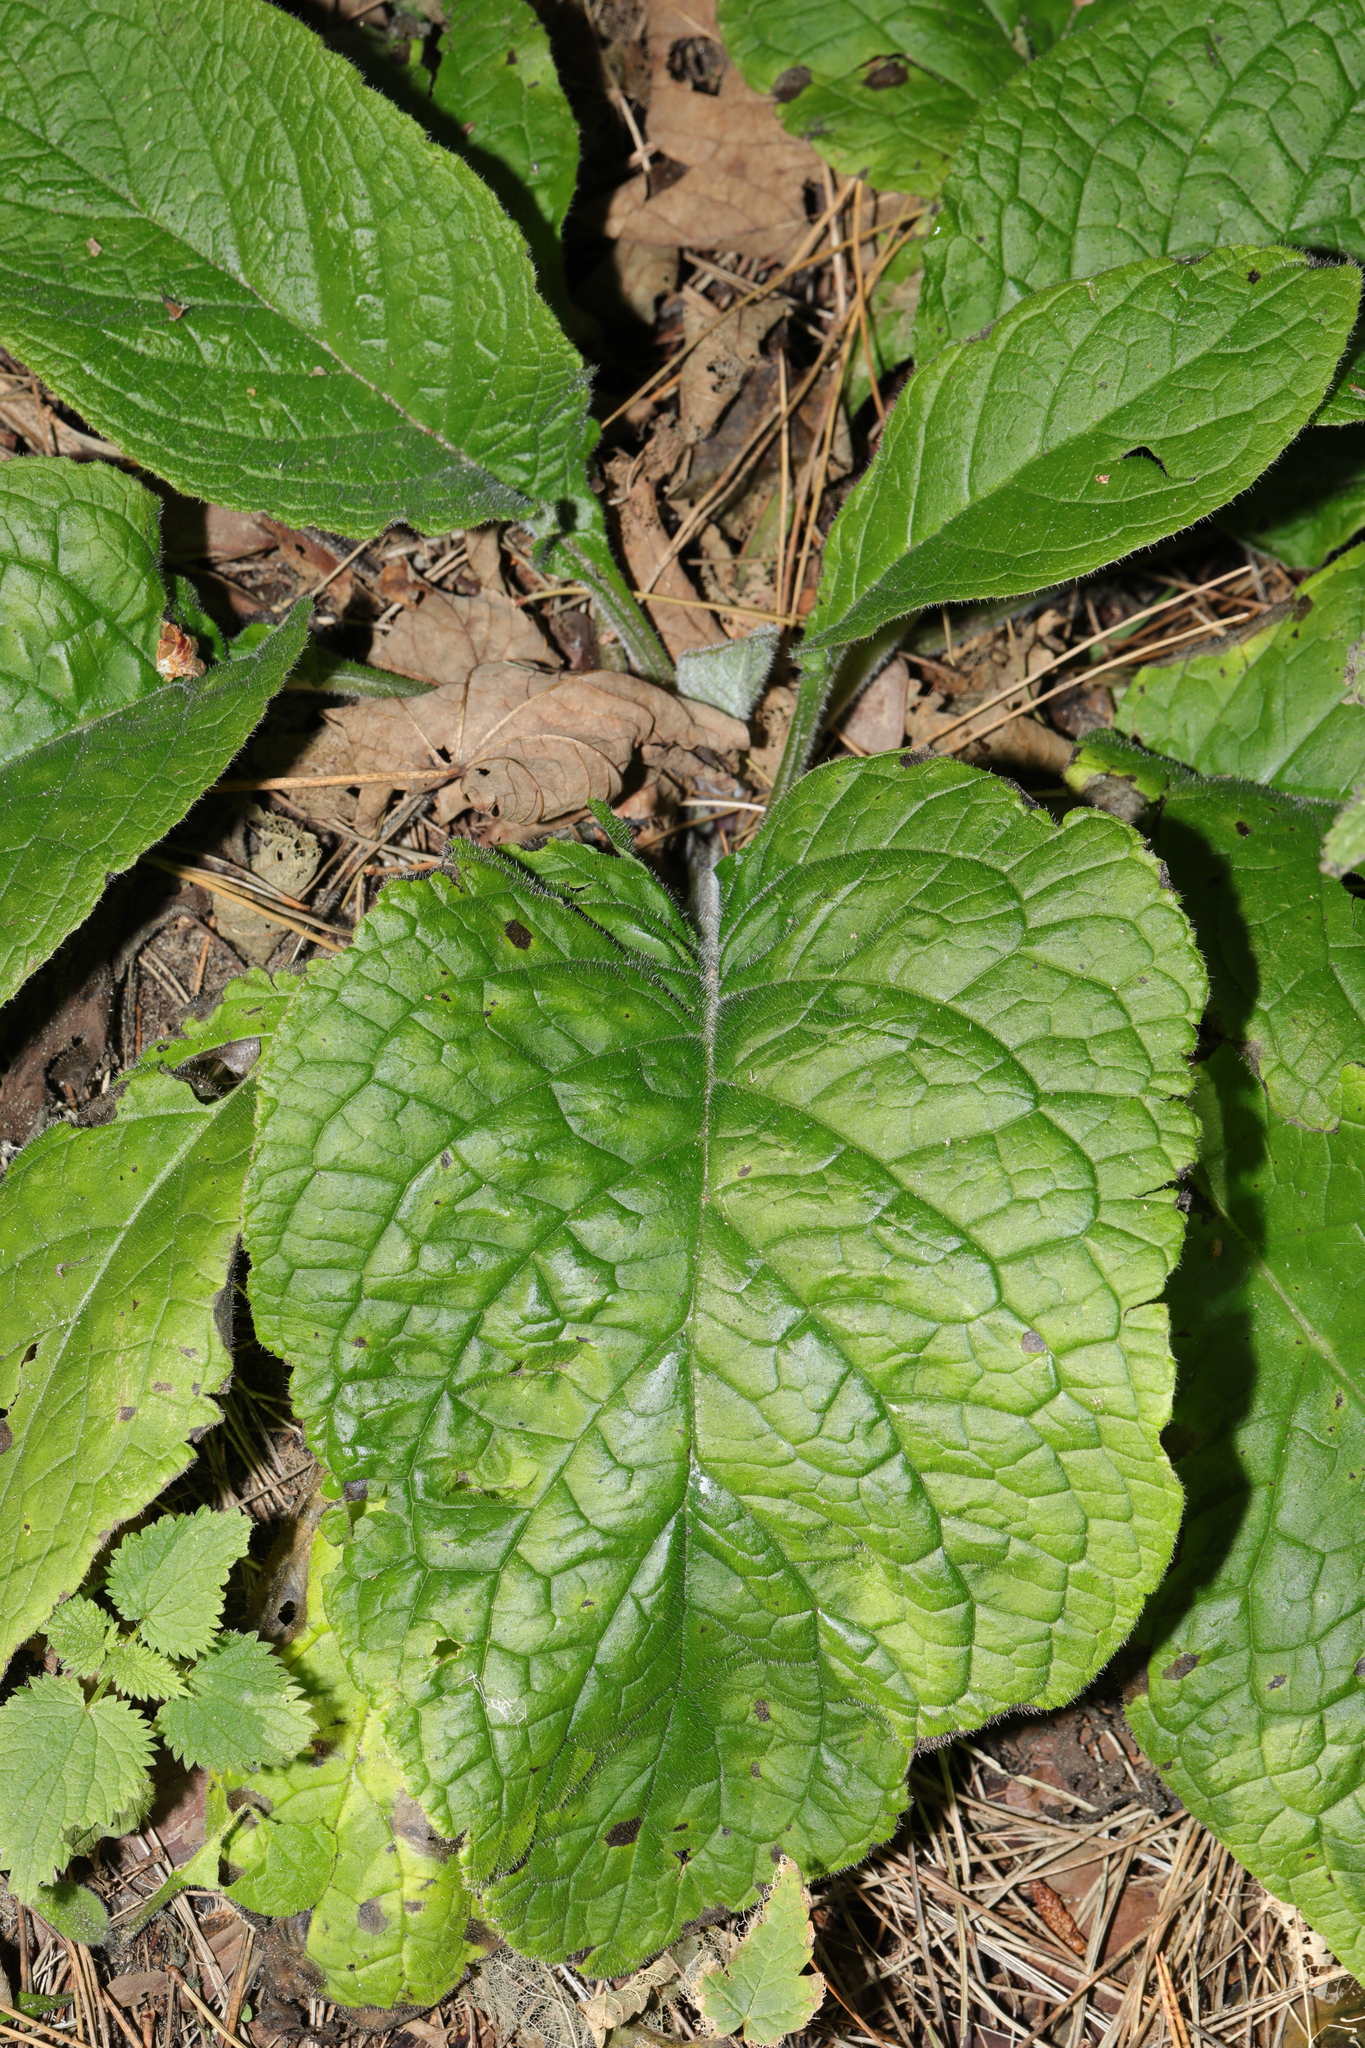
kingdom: Plantae
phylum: Tracheophyta
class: Magnoliopsida
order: Boraginales
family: Boraginaceae
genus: Pentaglottis
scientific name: Pentaglottis sempervirens
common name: Green alkanet
